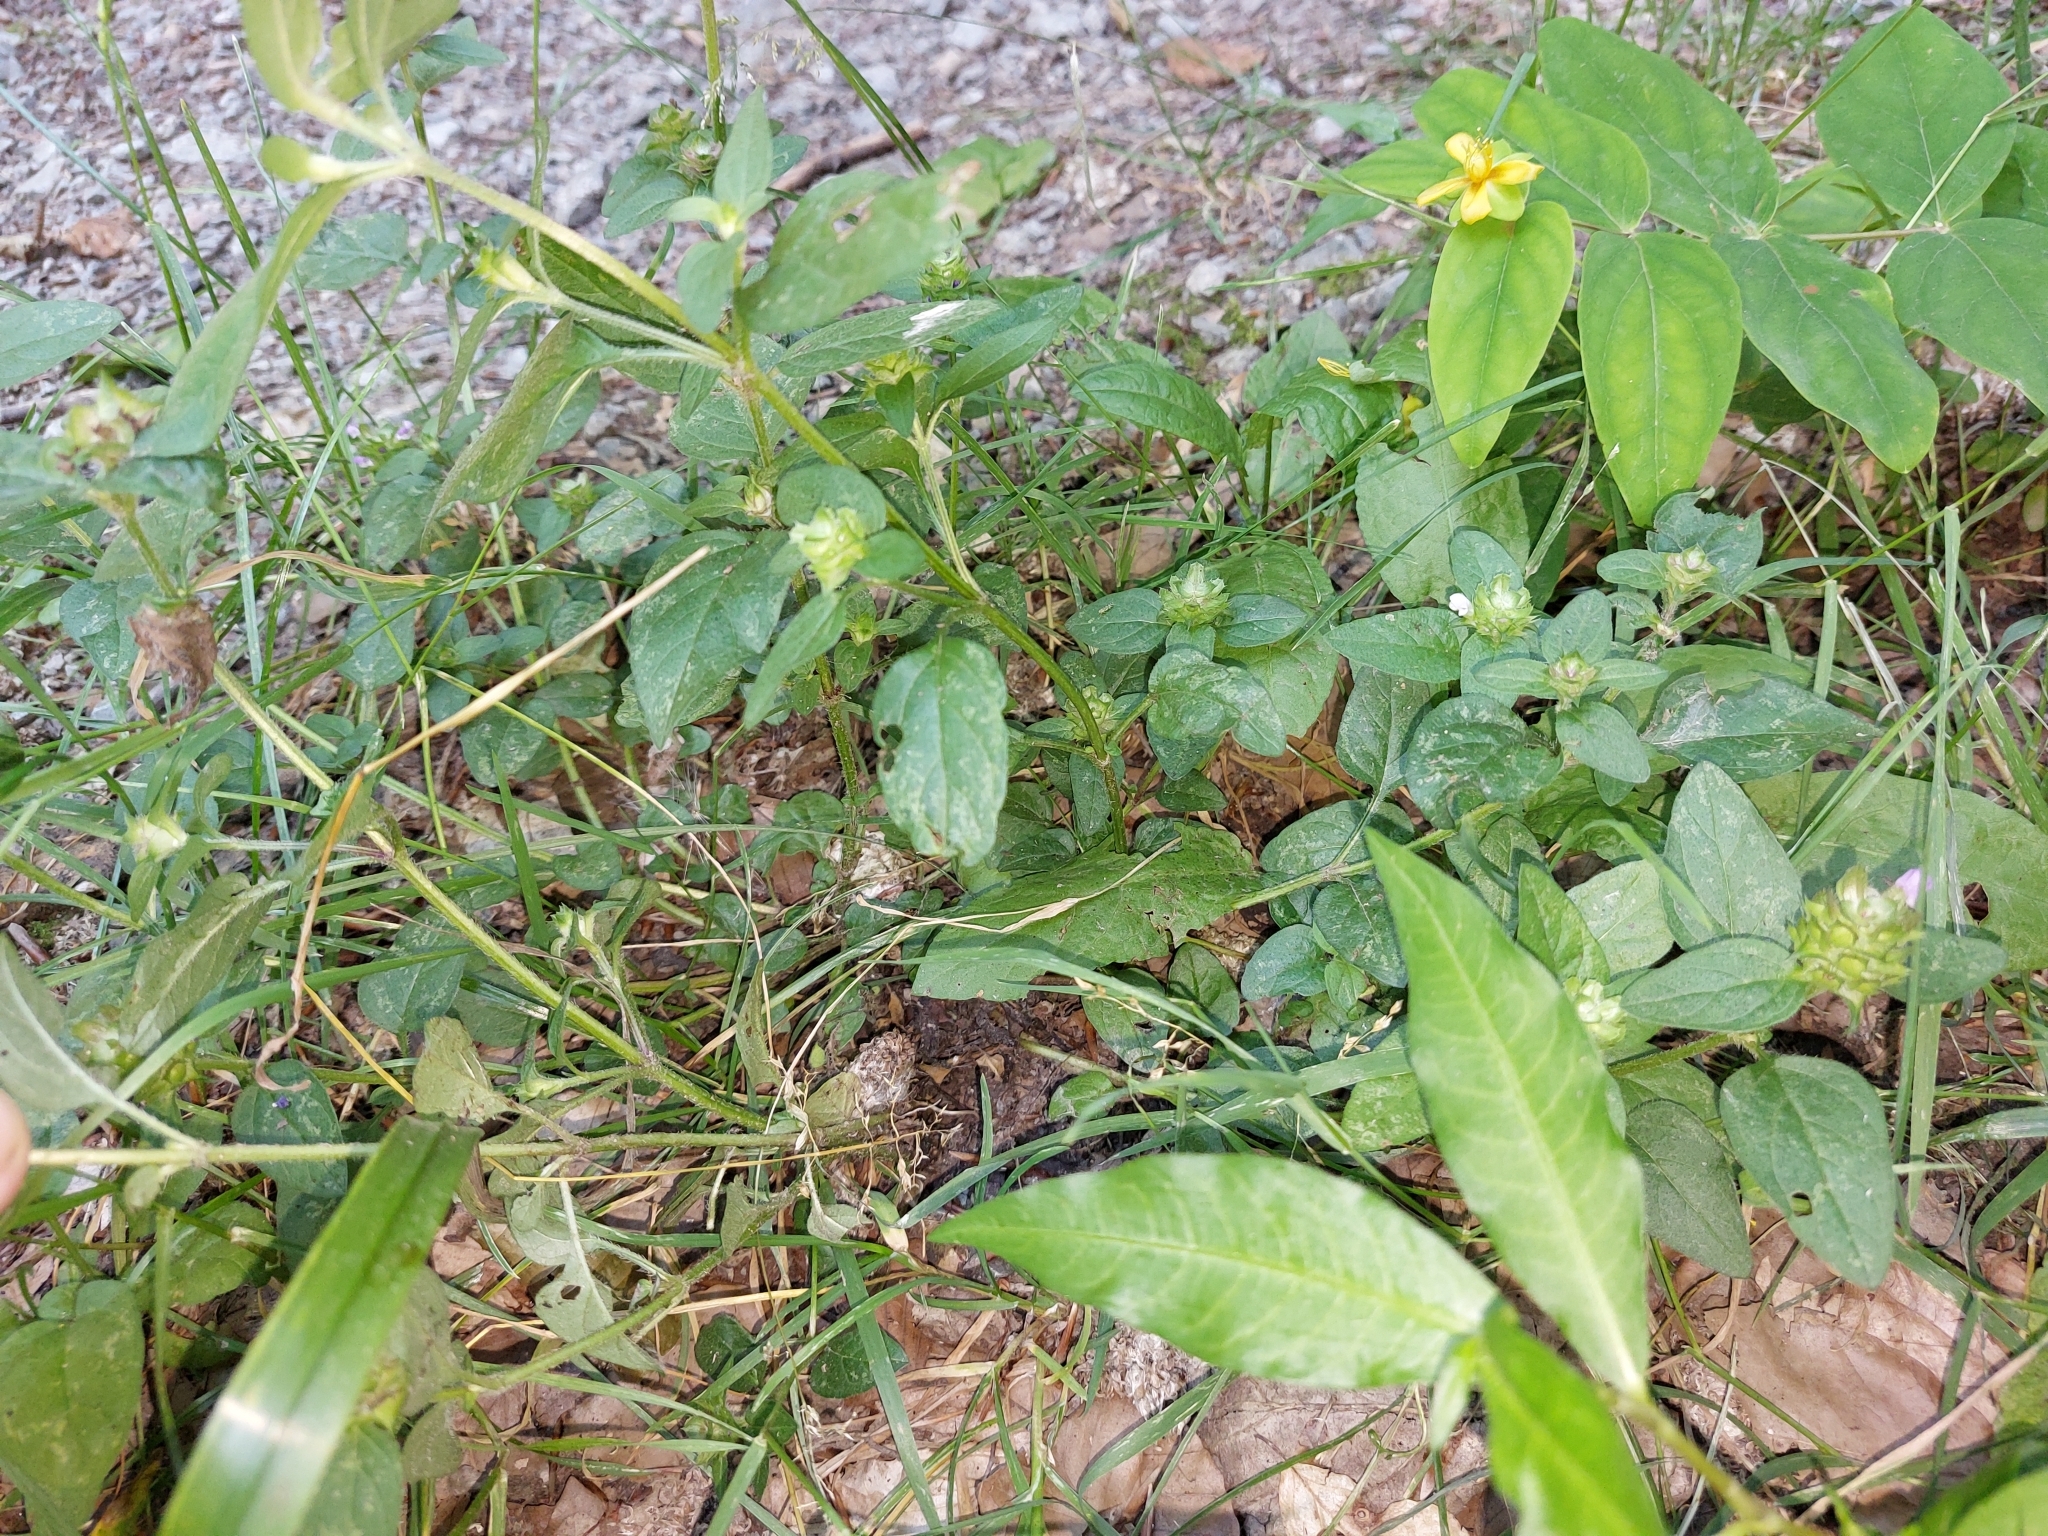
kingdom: Plantae
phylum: Tracheophyta
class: Magnoliopsida
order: Lamiales
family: Lamiaceae
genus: Prunella
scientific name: Prunella vulgaris
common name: Heal-all
